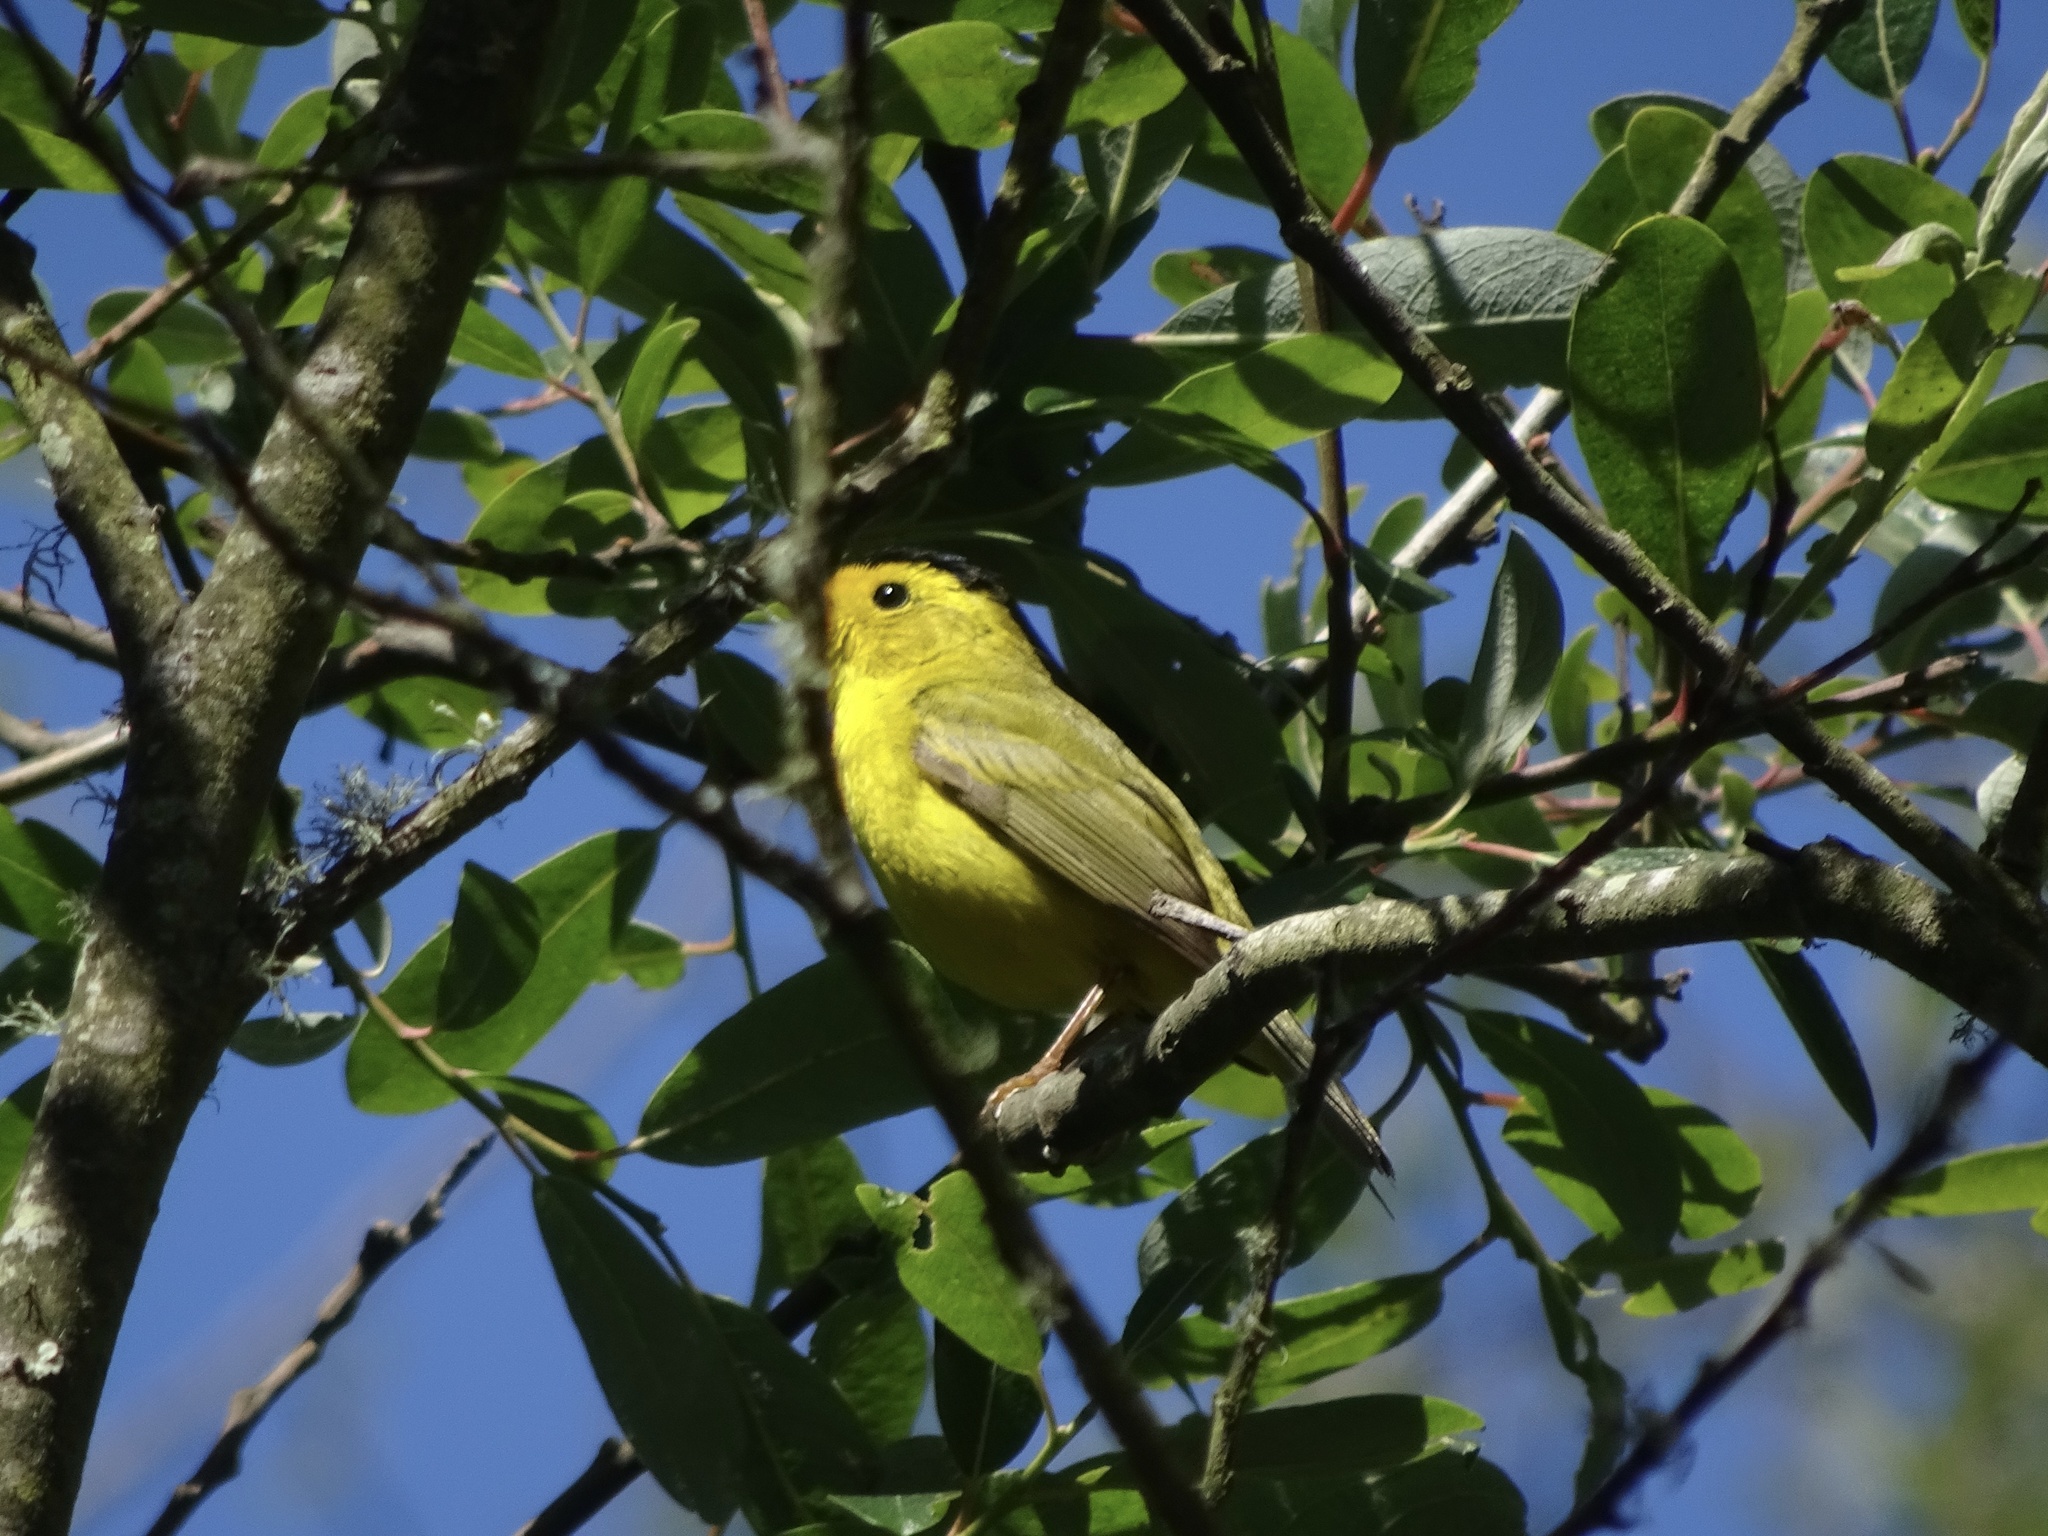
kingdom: Animalia
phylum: Chordata
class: Aves
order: Passeriformes
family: Parulidae
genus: Cardellina
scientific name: Cardellina pusilla
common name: Wilson's warbler
